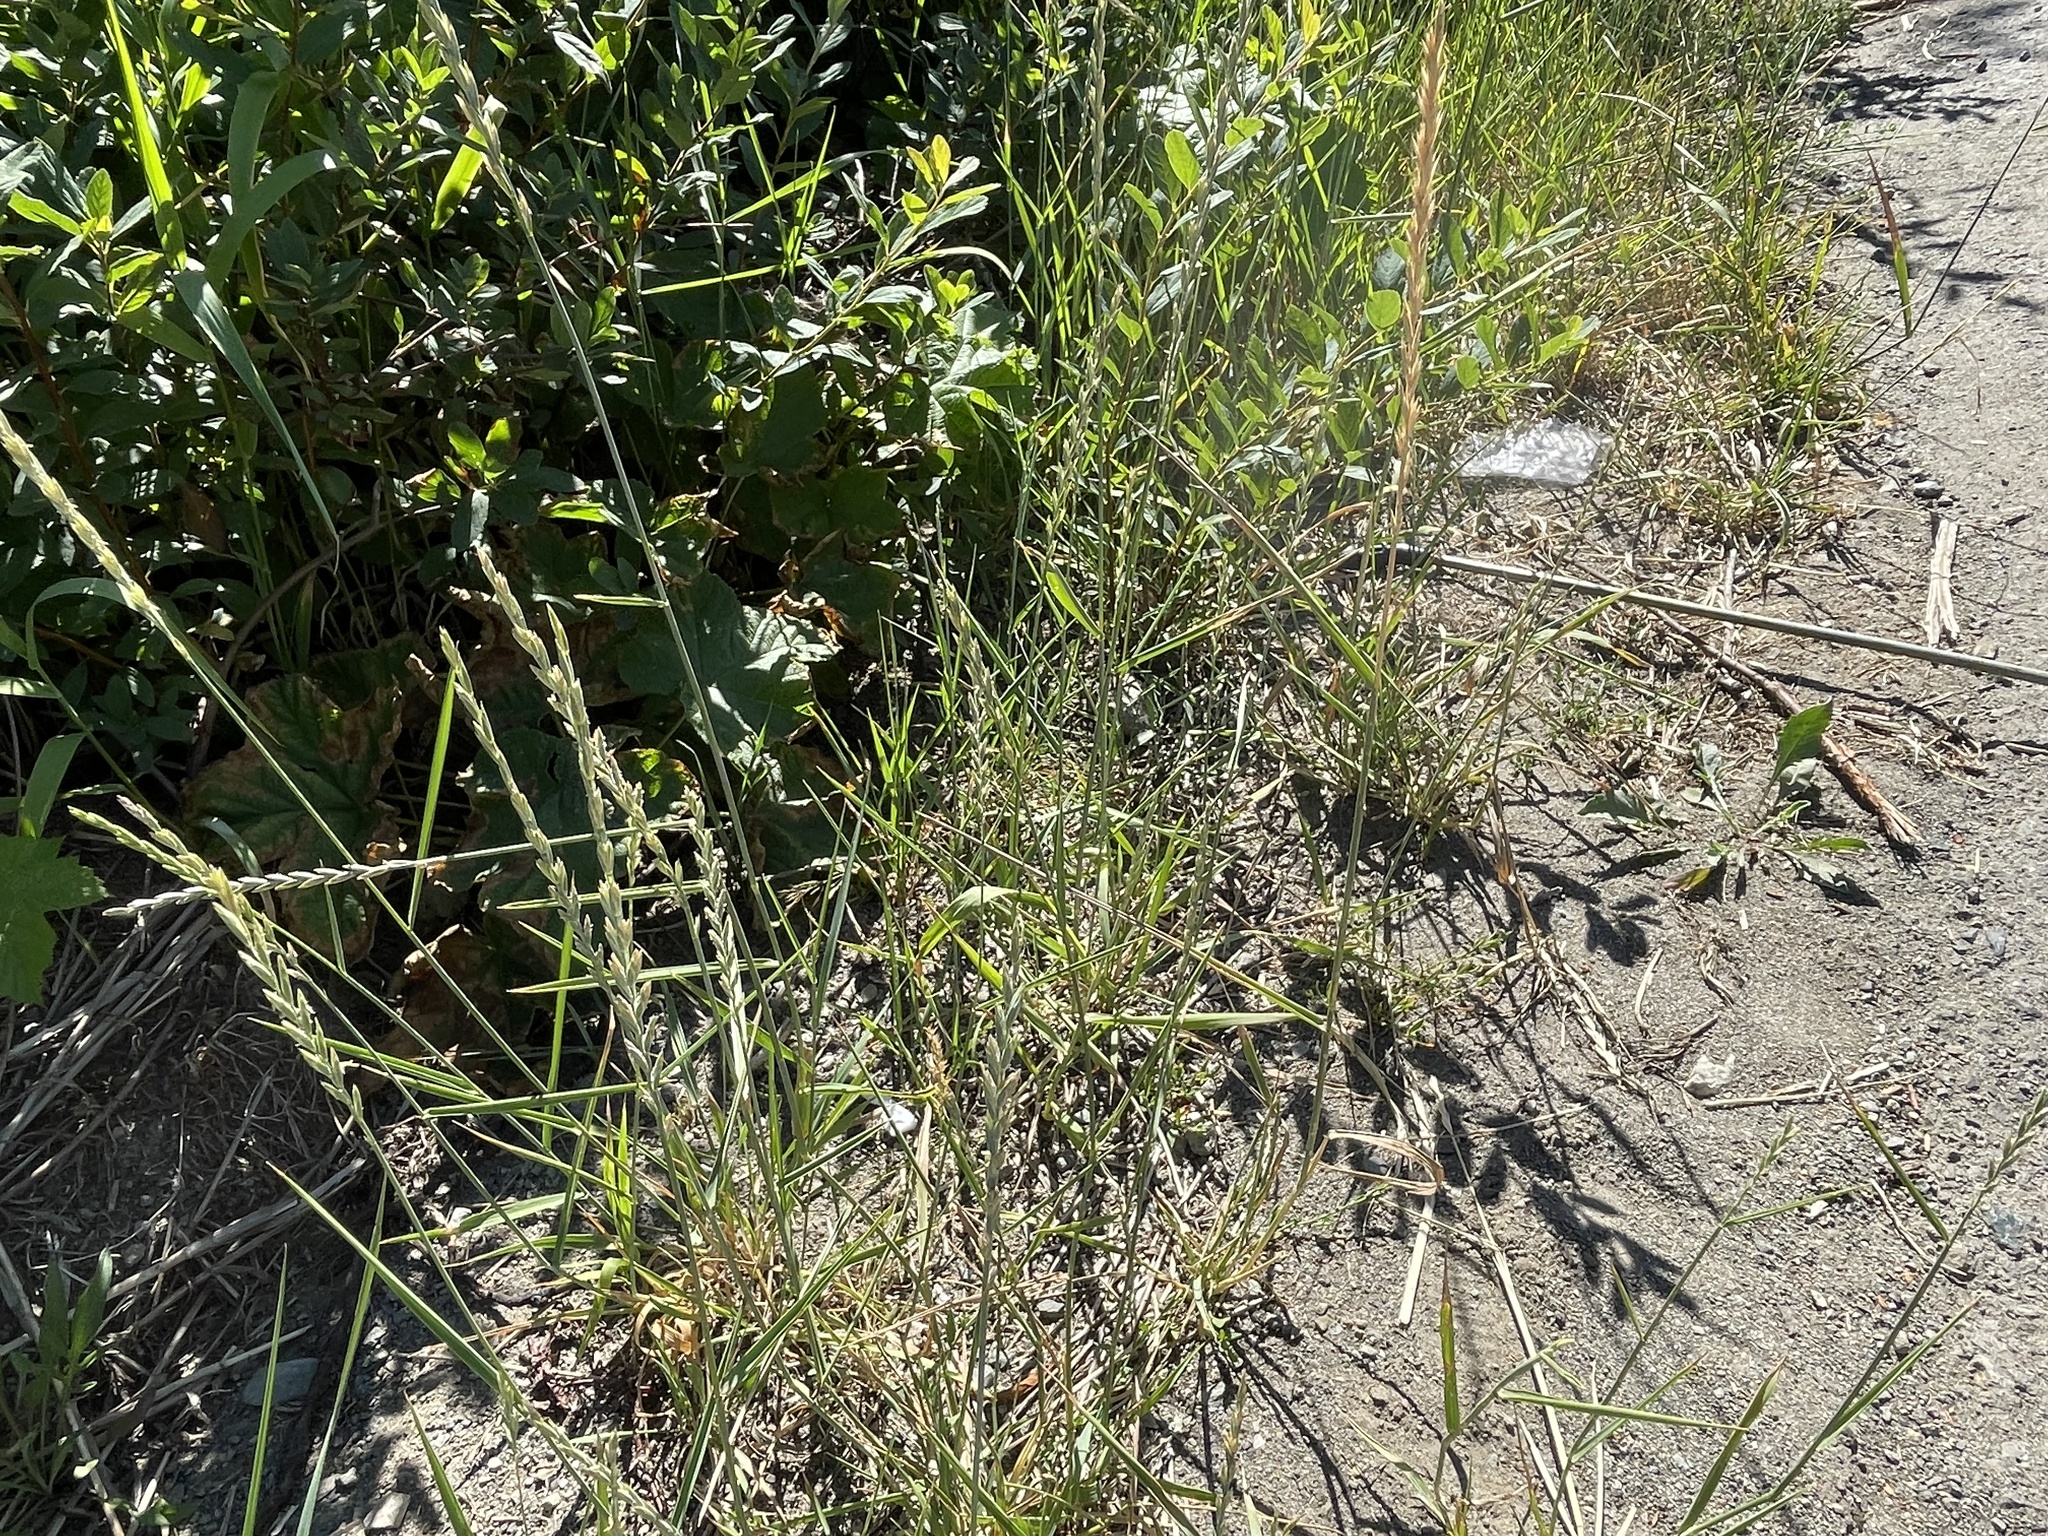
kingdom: Plantae
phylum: Tracheophyta
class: Liliopsida
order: Poales
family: Poaceae
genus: Thinopyrum
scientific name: Thinopyrum intermedium
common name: Intermediate wheatgrass
